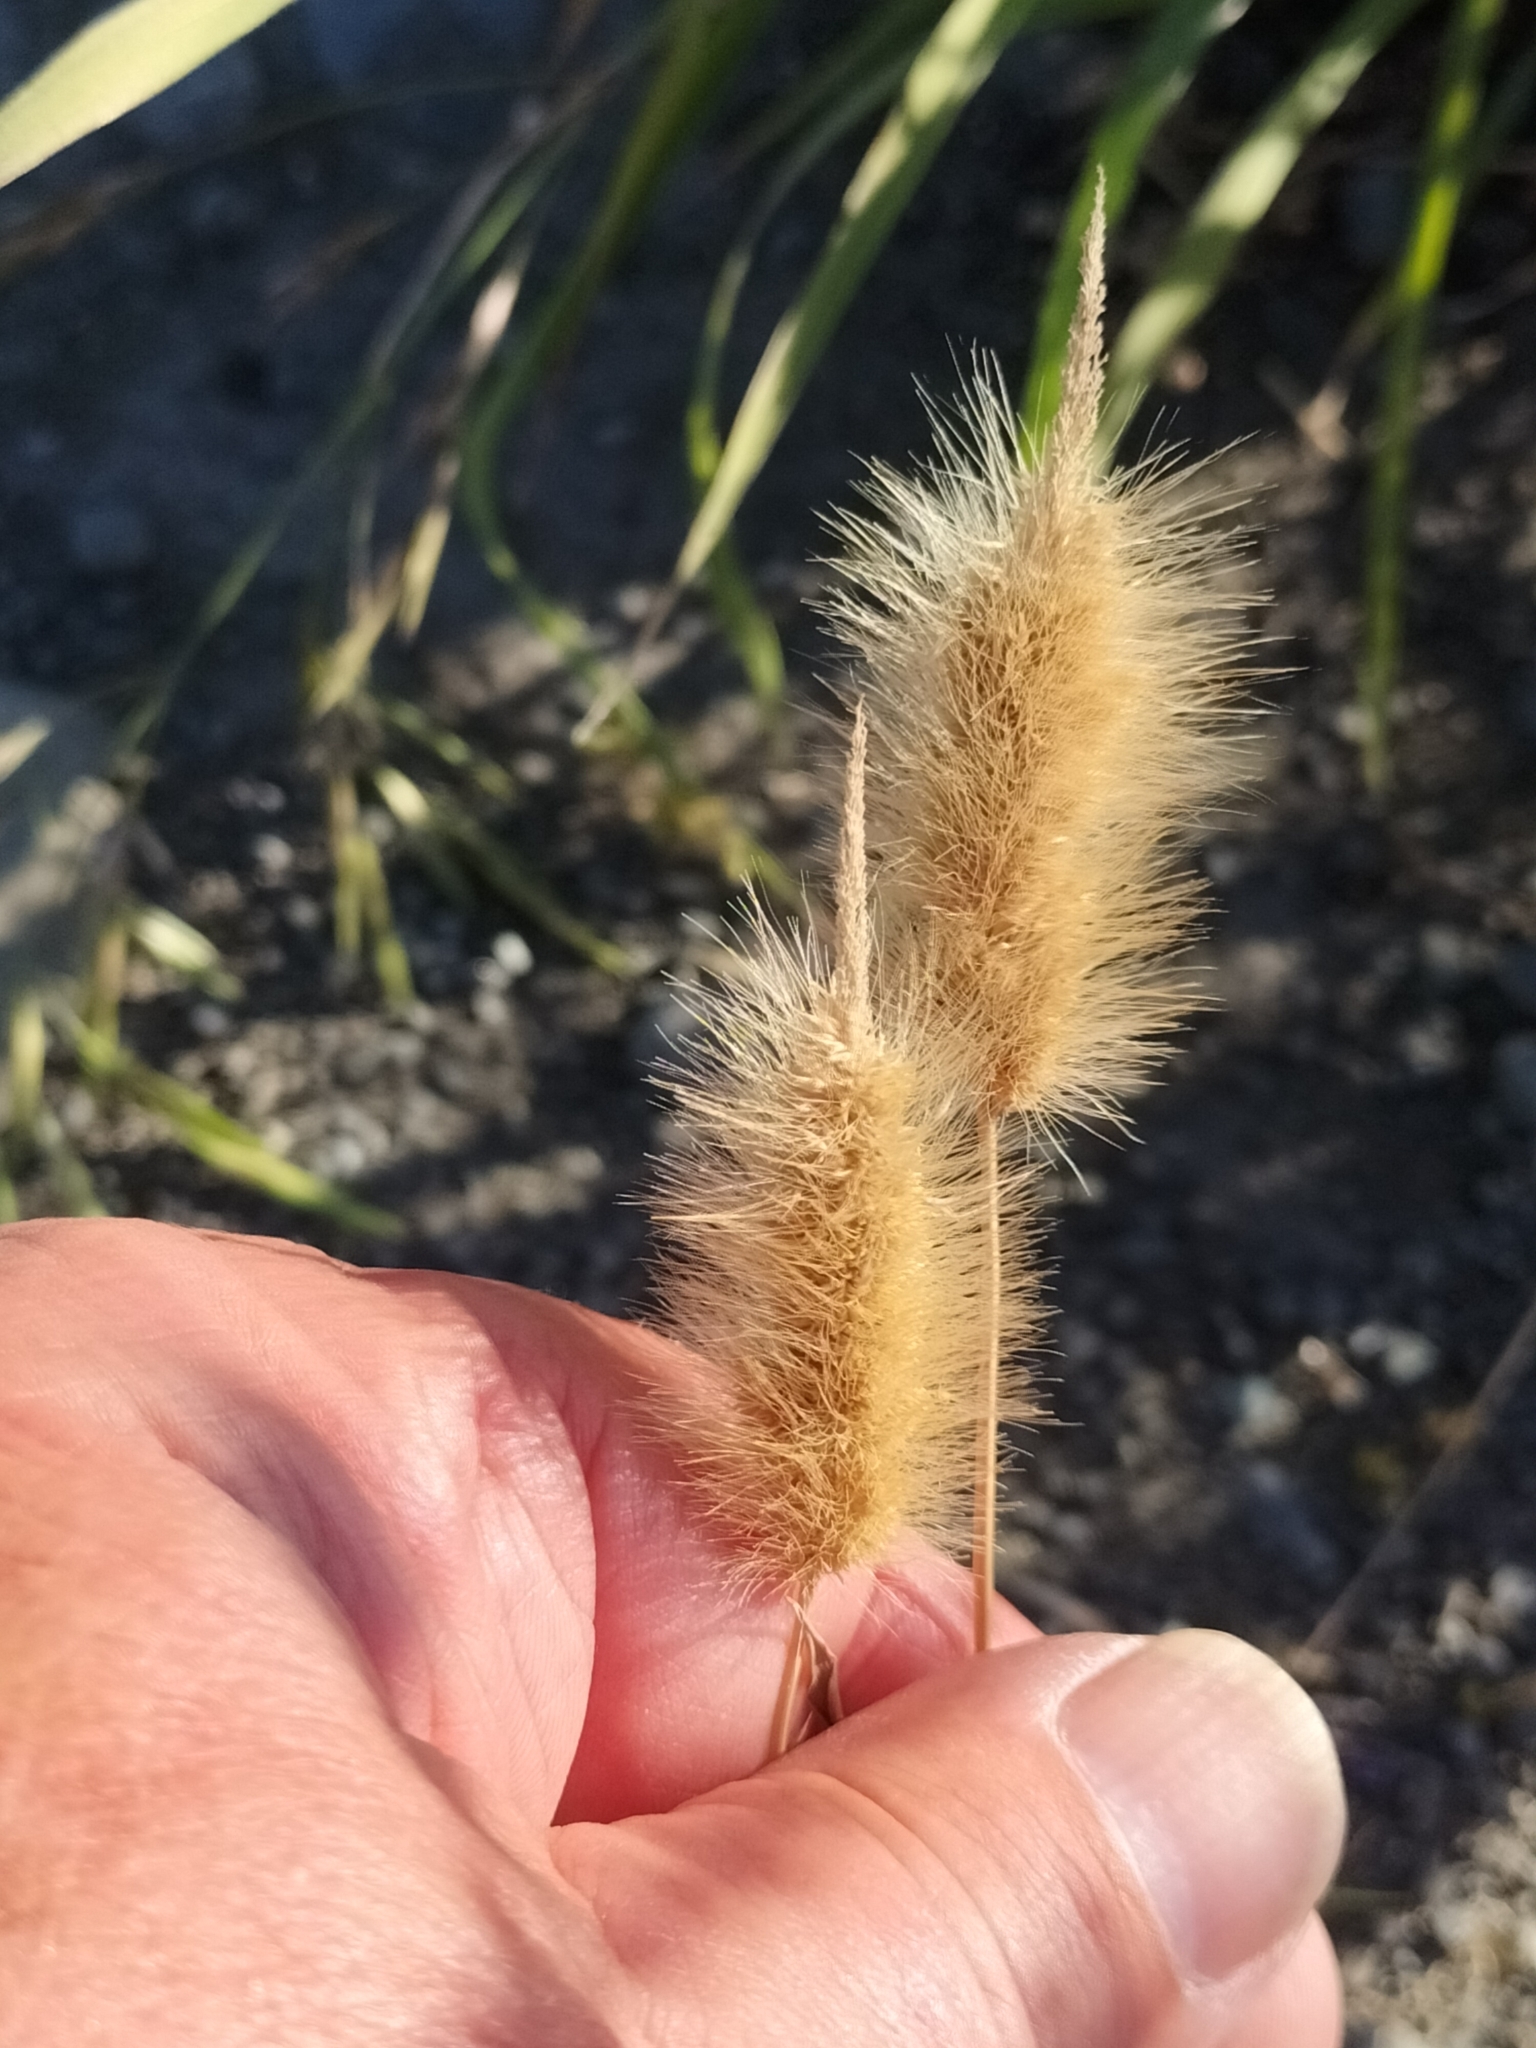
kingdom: Plantae
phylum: Tracheophyta
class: Liliopsida
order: Poales
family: Poaceae
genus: Polypogon
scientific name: Polypogon monspeliensis
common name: Annual rabbitsfoot grass
